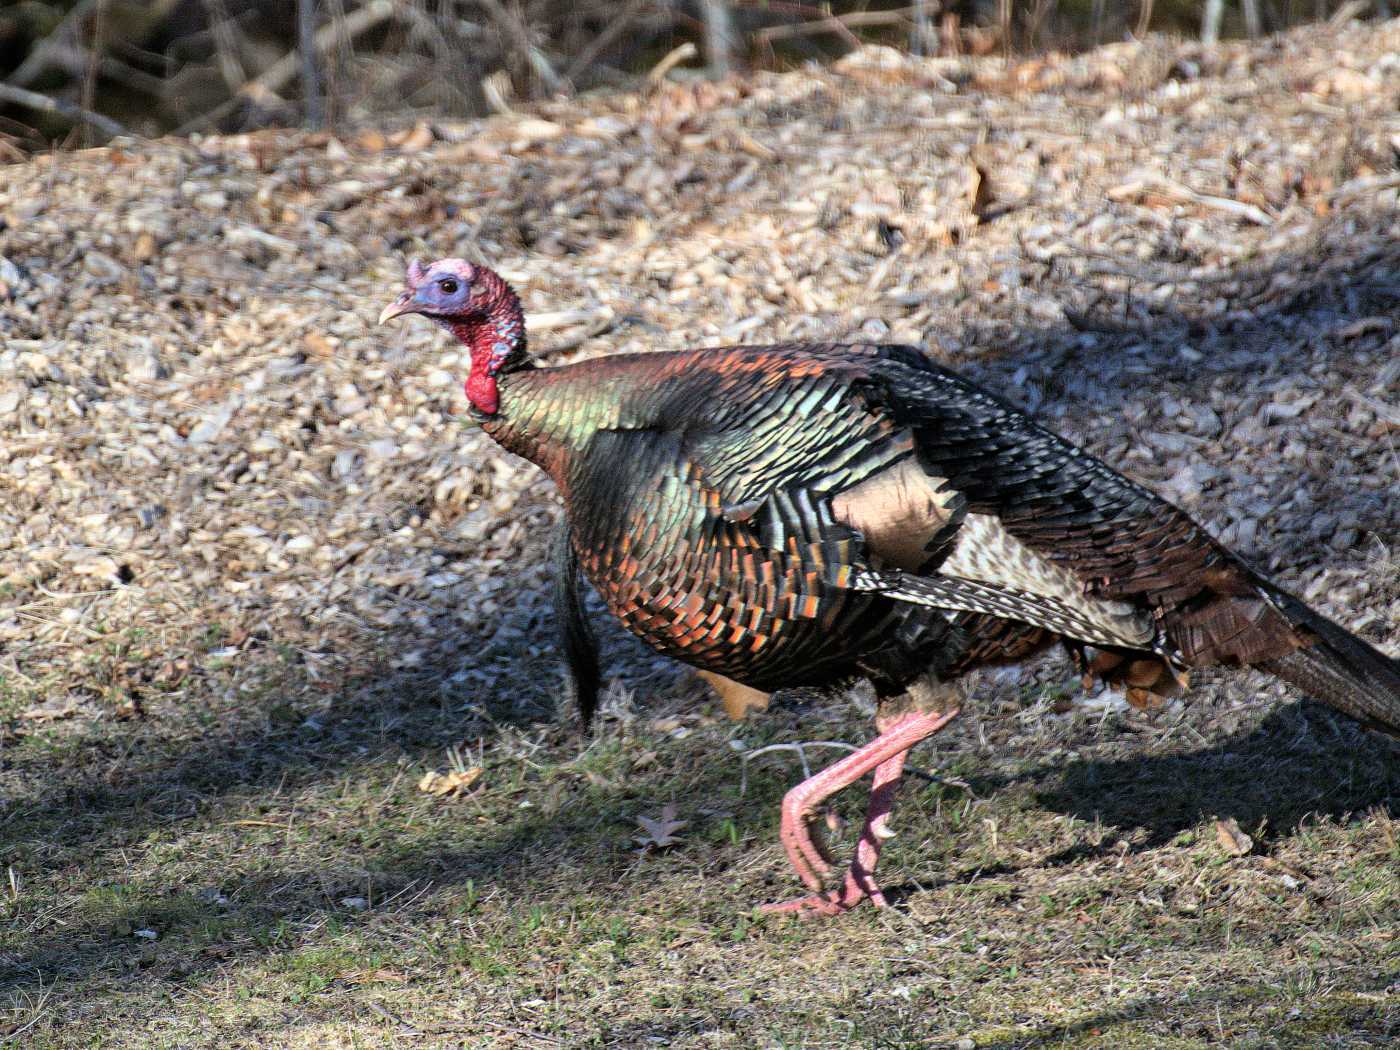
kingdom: Animalia
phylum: Chordata
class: Aves
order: Galliformes
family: Phasianidae
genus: Meleagris
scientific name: Meleagris gallopavo
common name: Wild turkey
